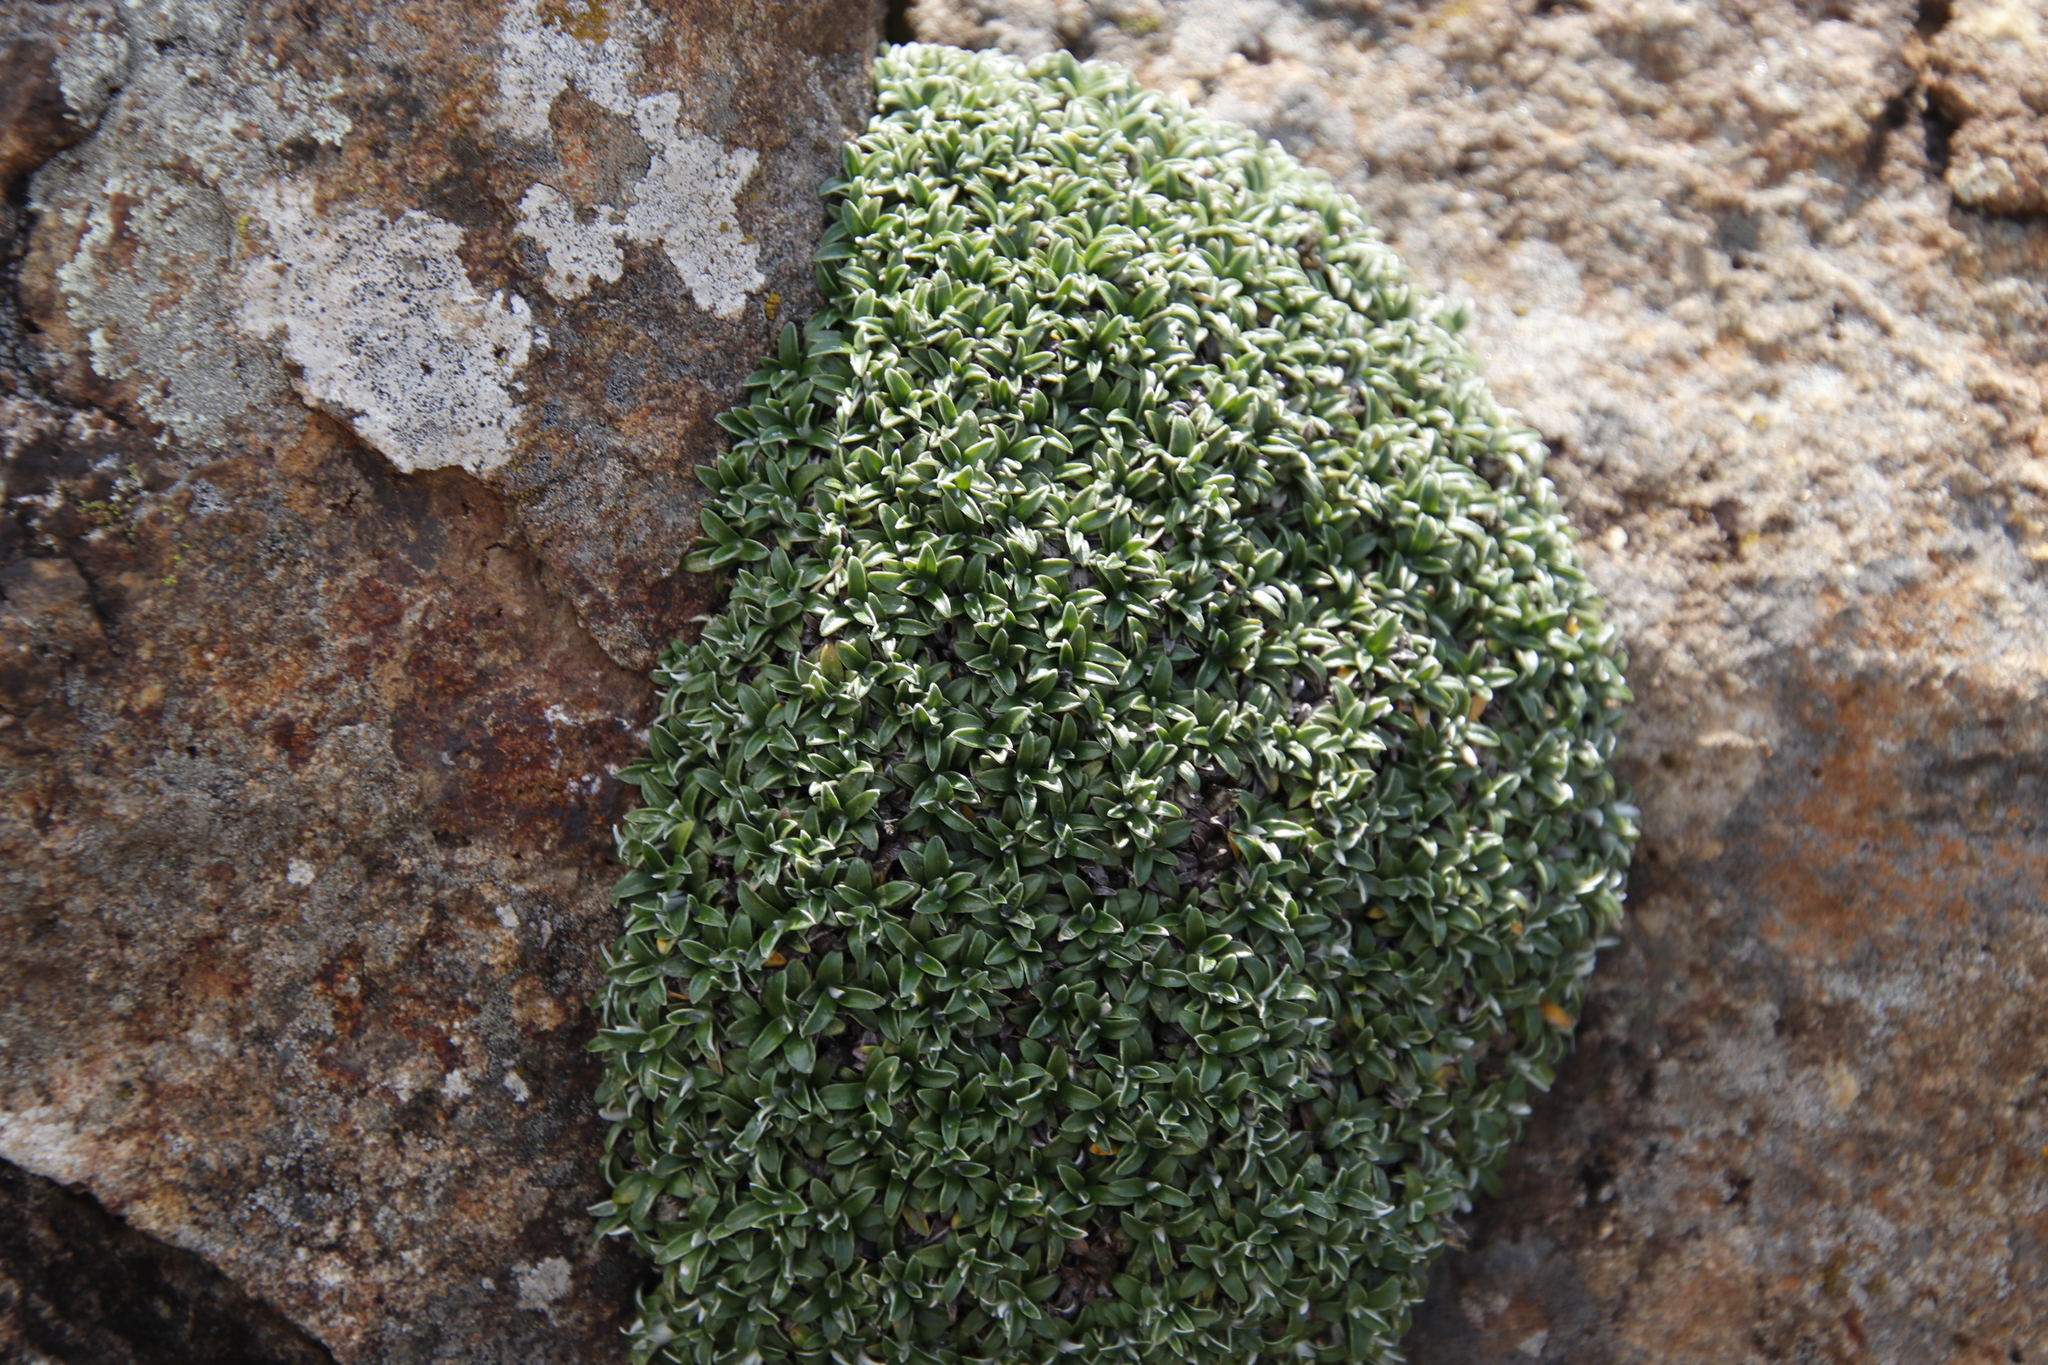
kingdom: Plantae
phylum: Tracheophyta
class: Magnoliopsida
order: Asterales
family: Asteraceae
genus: Helichrysum
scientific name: Helichrysum sessilioides
